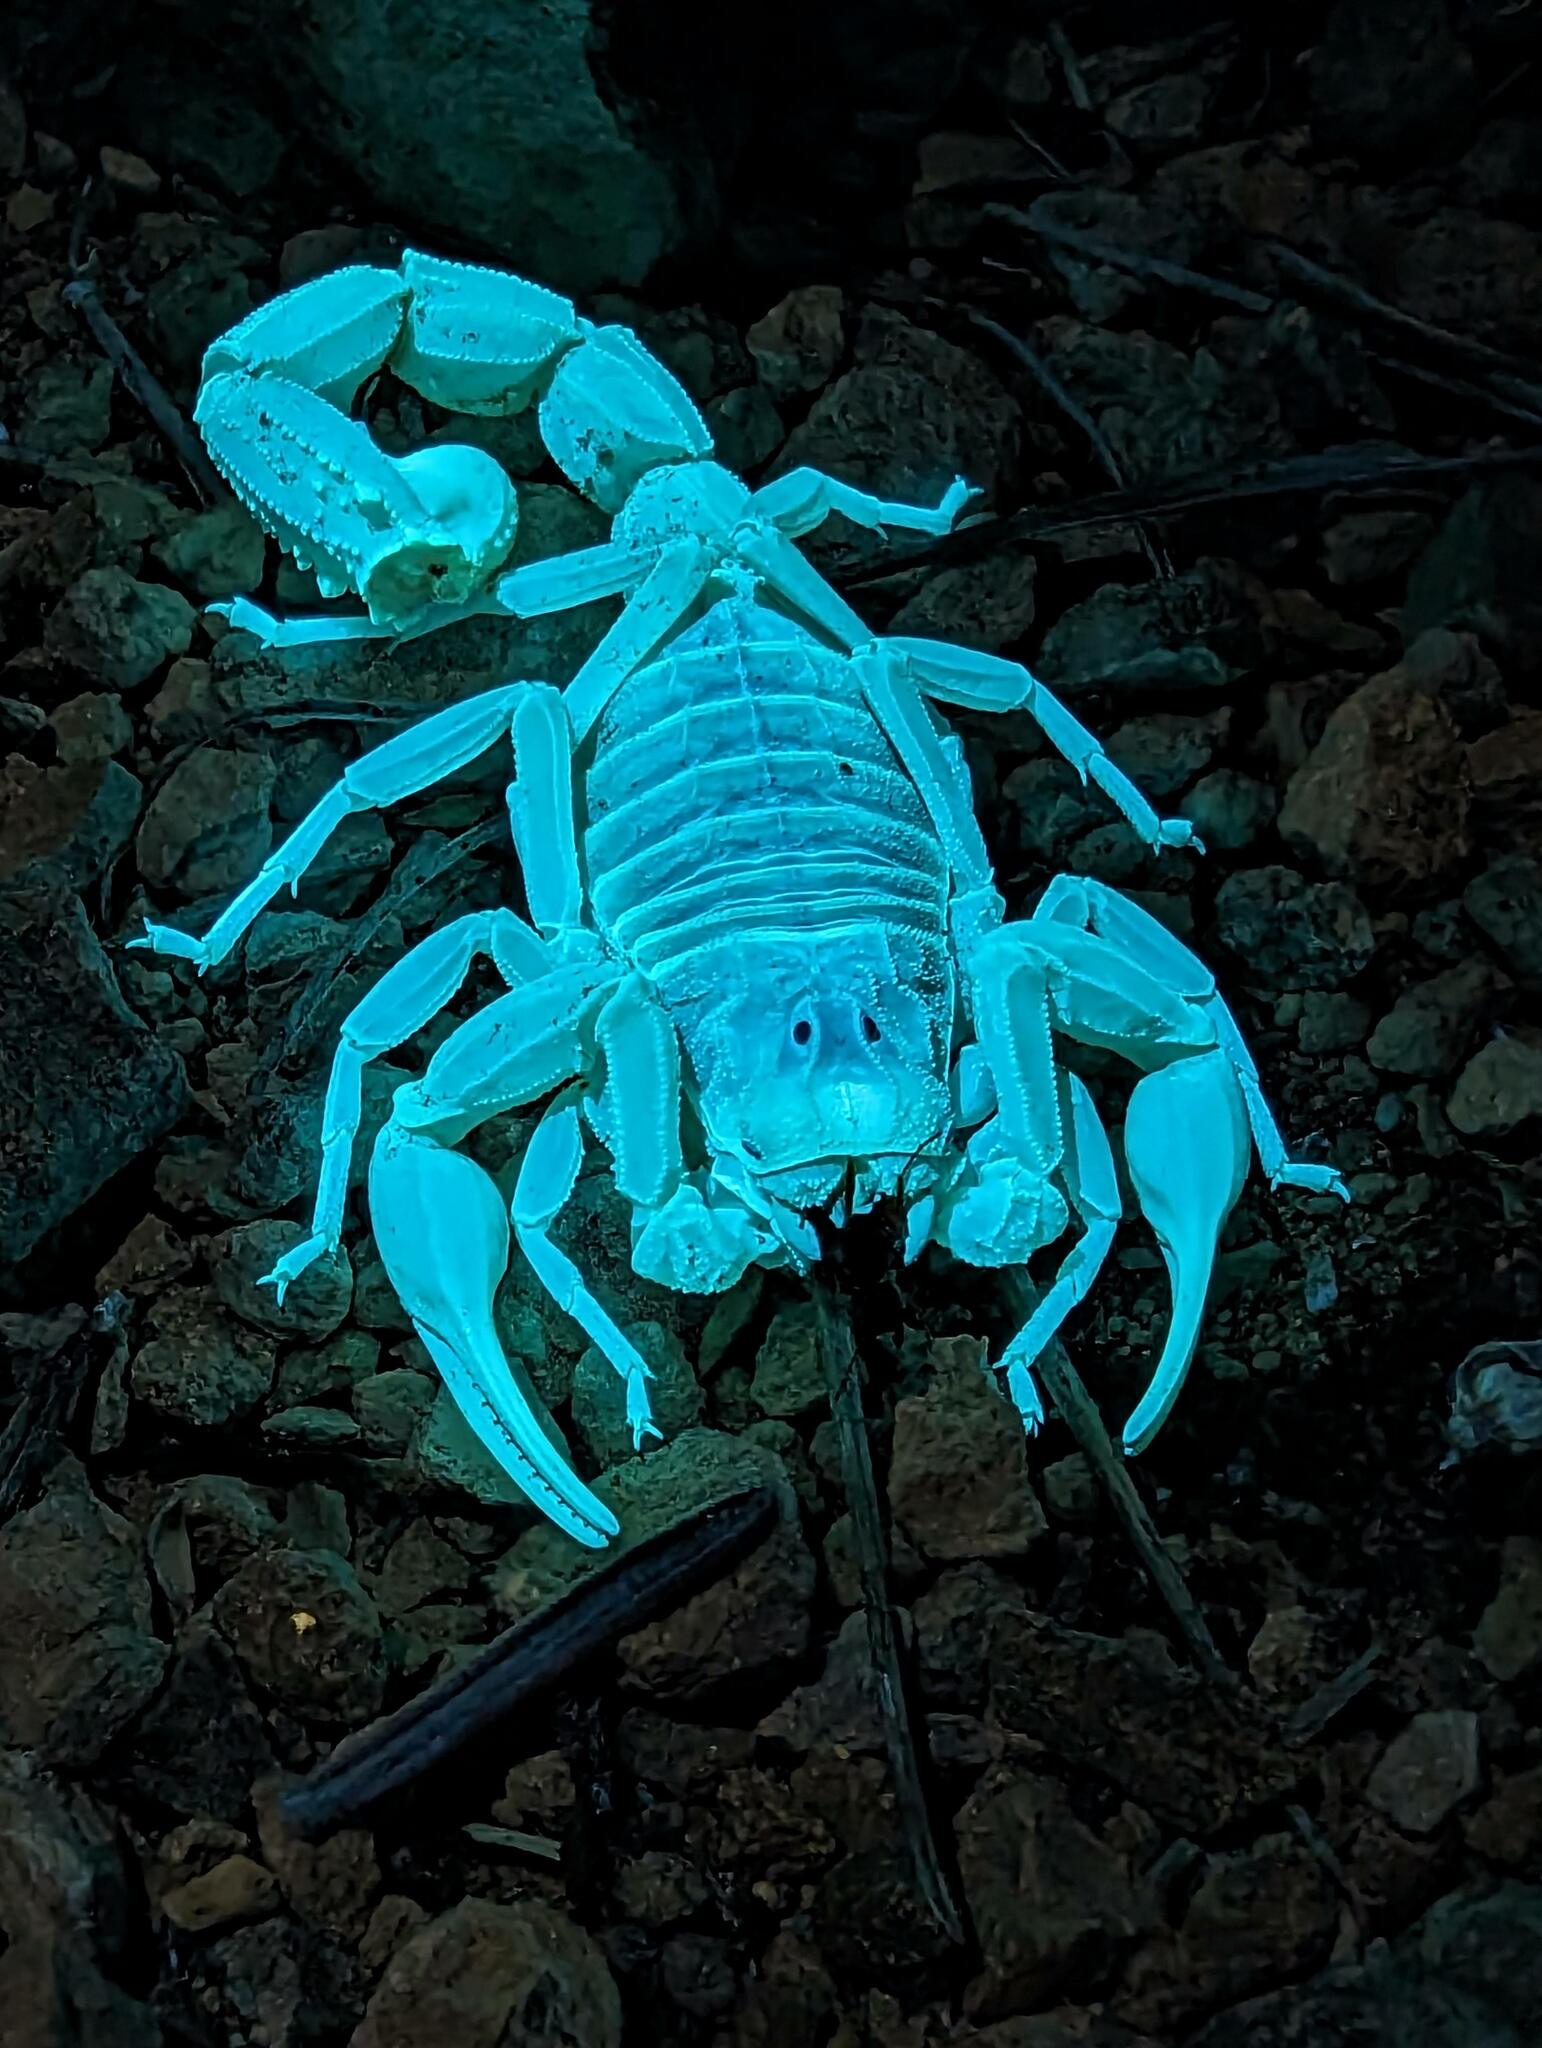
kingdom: Animalia
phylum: Arthropoda
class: Arachnida
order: Scorpiones
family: Buthidae
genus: Buthus
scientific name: Buthus occitanus
